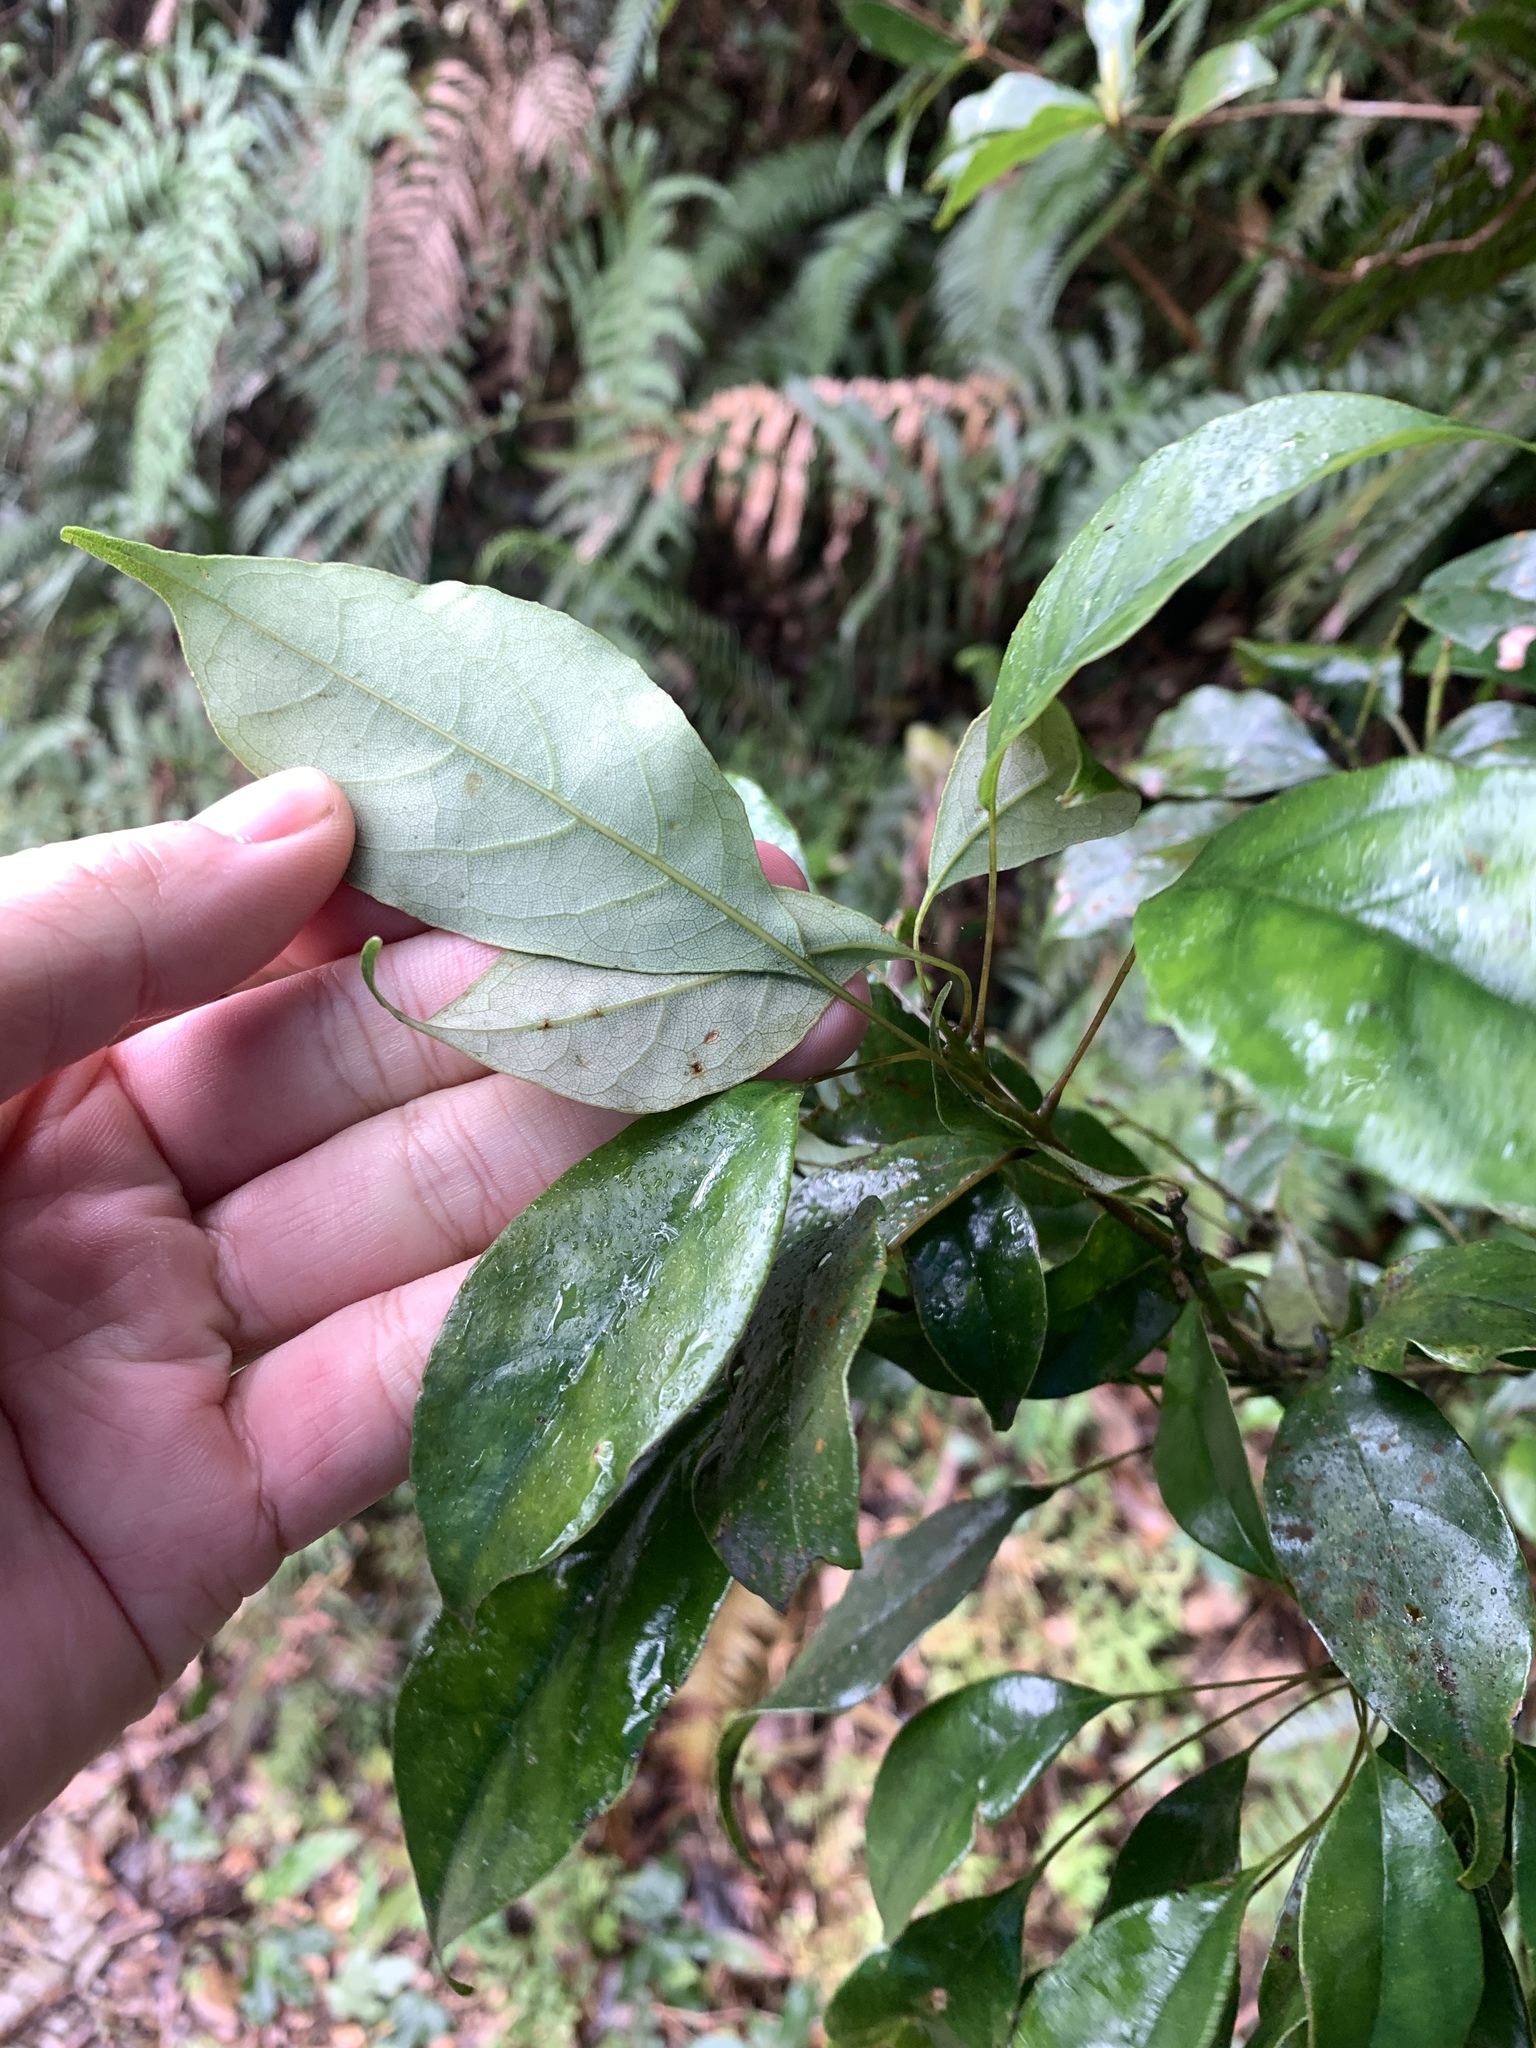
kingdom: Plantae
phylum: Tracheophyta
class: Magnoliopsida
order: Proteales
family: Sabiaceae
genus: Meliosma
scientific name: Meliosma squamulata
